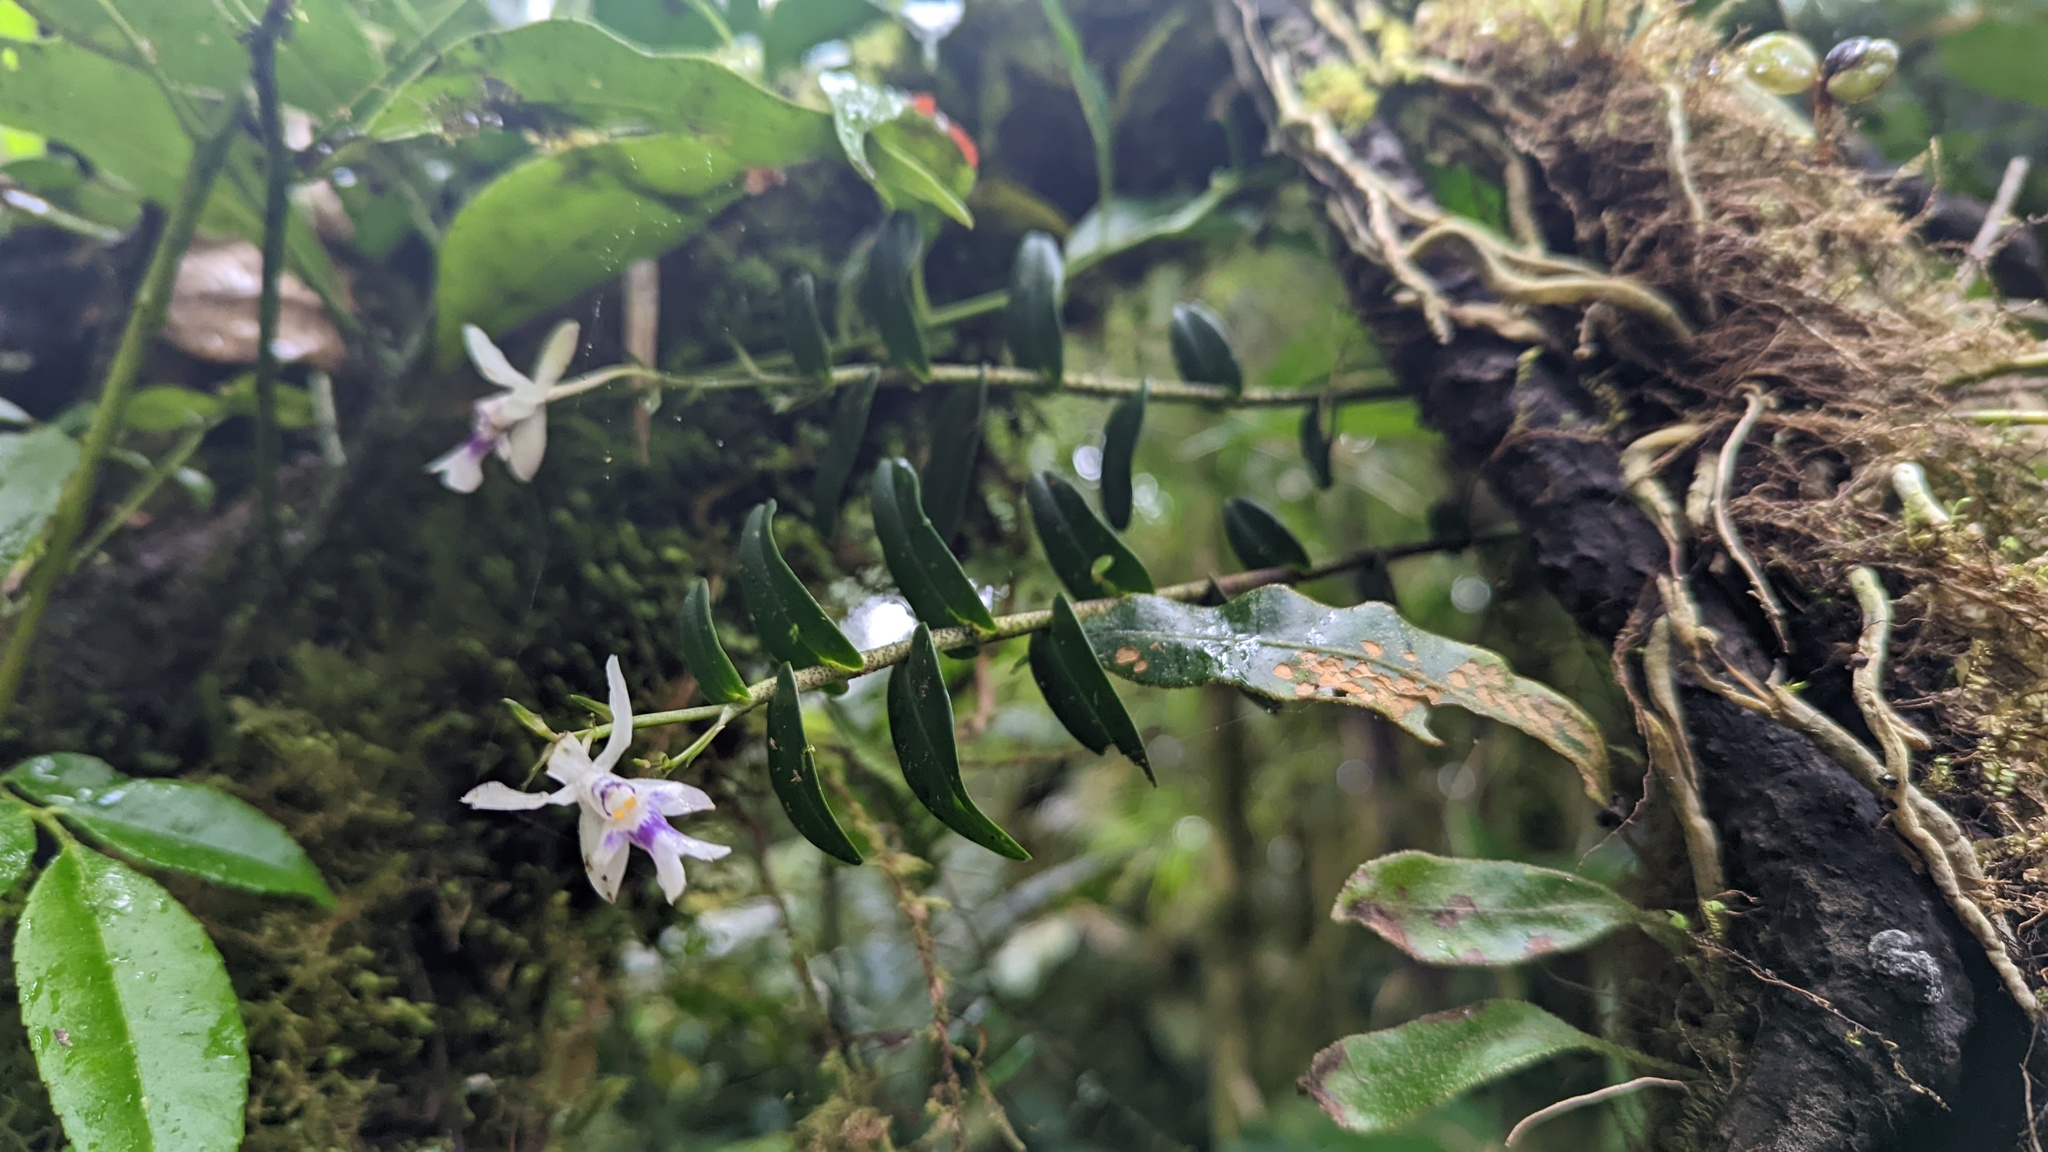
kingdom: Plantae
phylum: Tracheophyta
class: Liliopsida
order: Asparagales
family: Orchidaceae
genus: Epidendrum
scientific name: Epidendrum endresii
